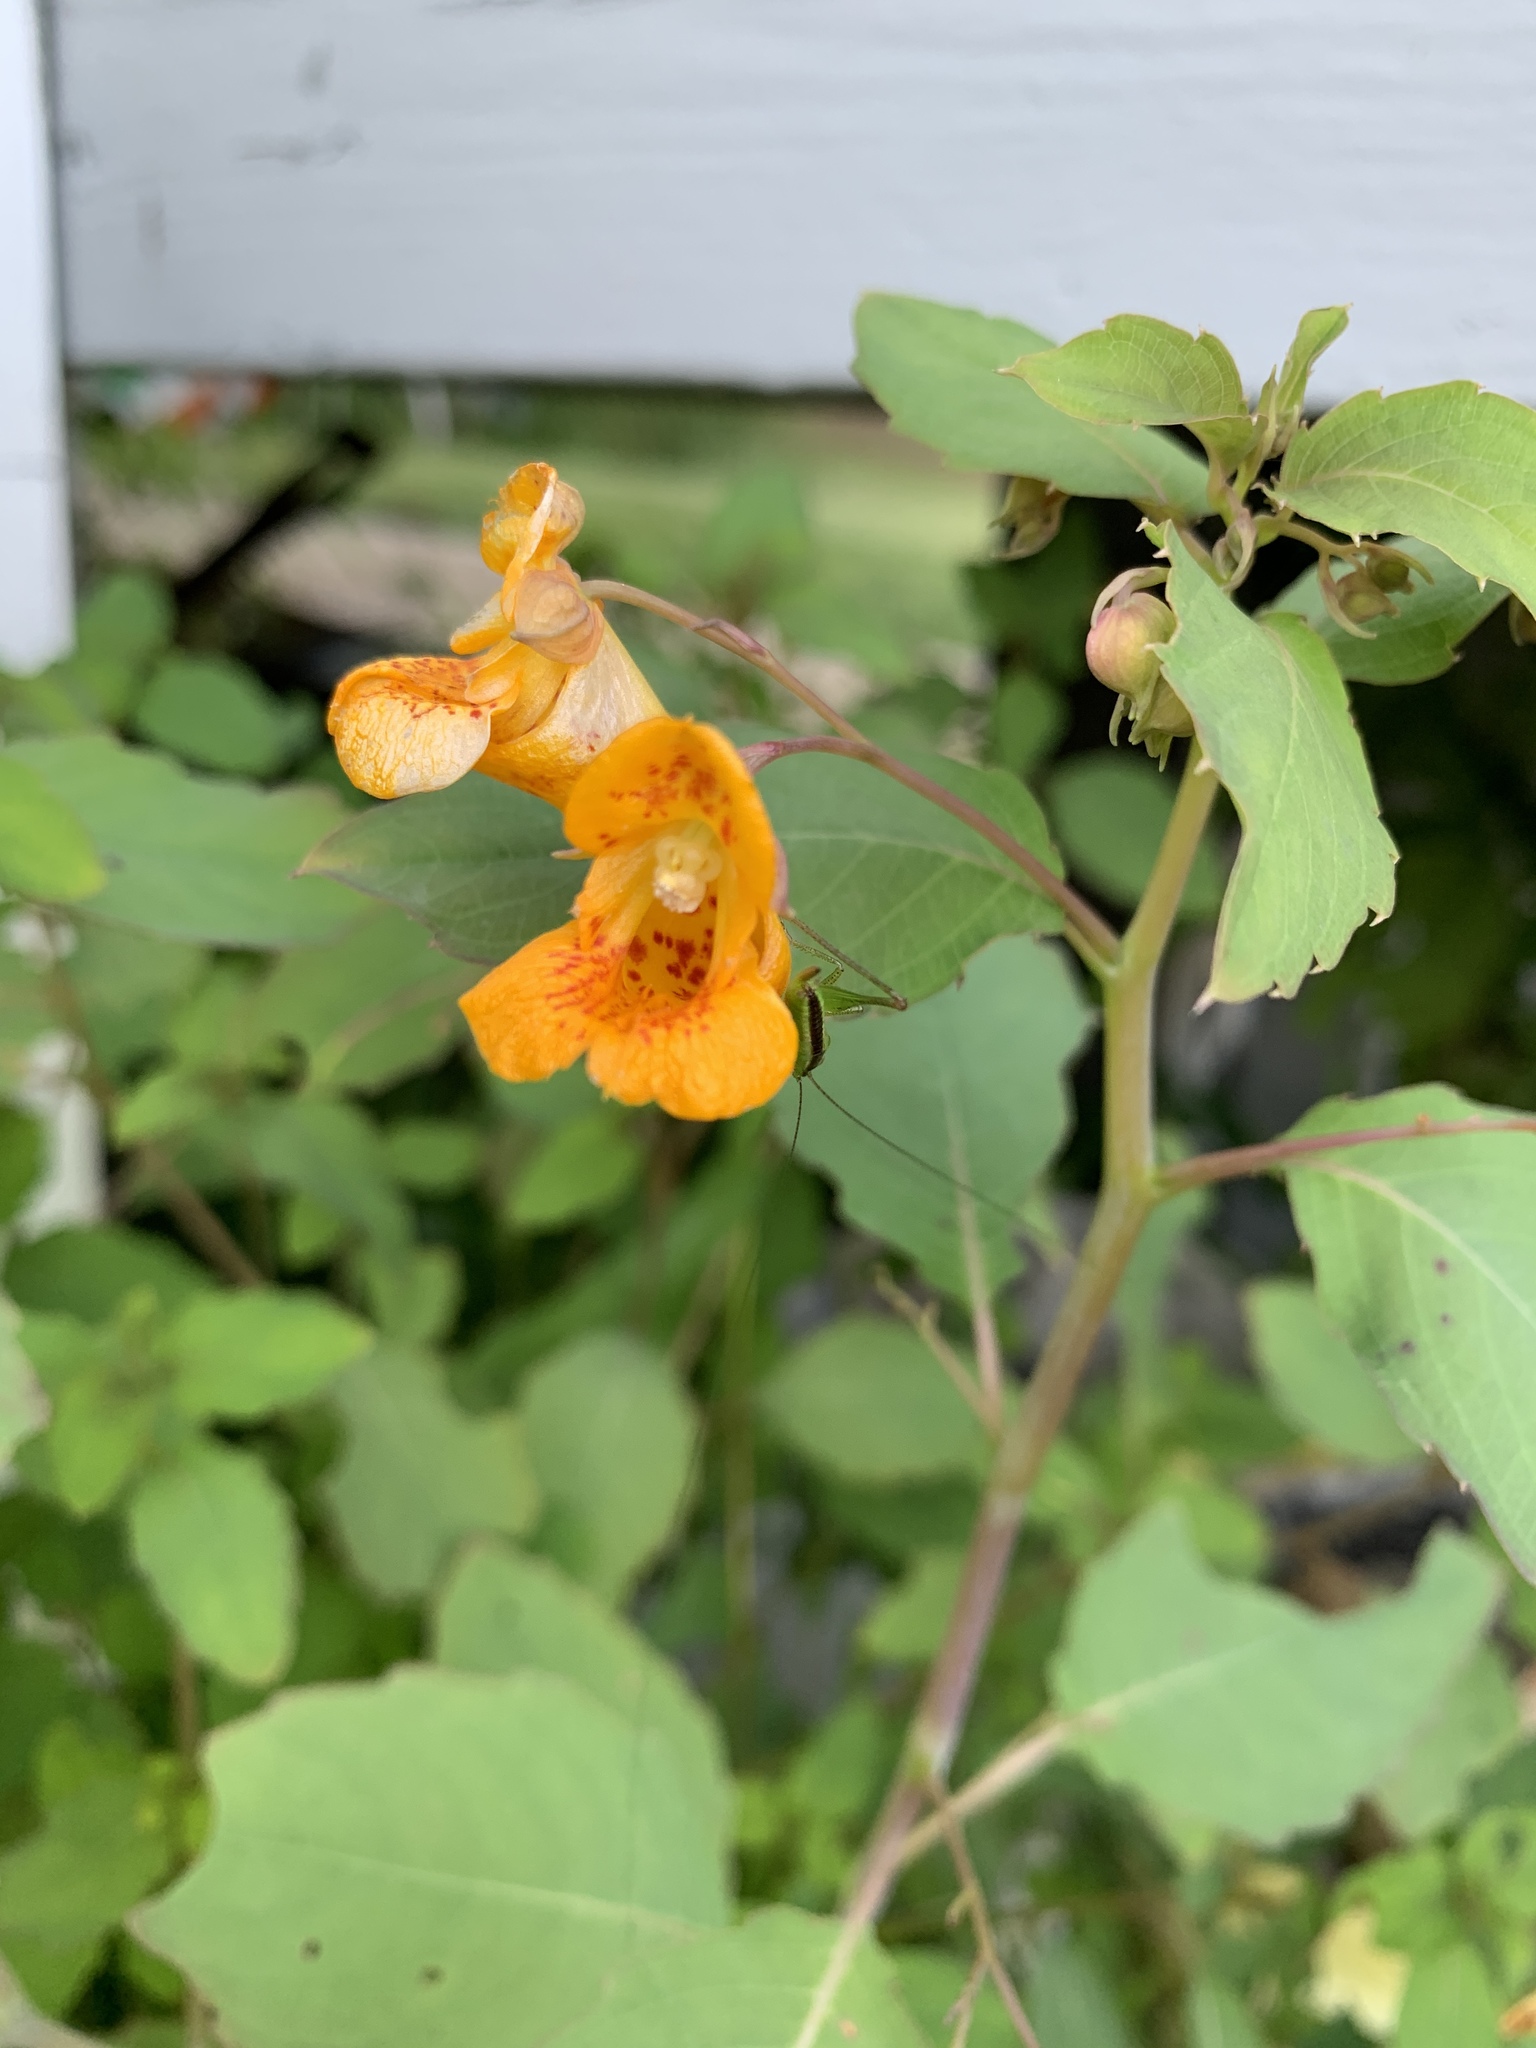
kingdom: Plantae
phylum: Tracheophyta
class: Magnoliopsida
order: Ericales
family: Balsaminaceae
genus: Impatiens
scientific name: Impatiens capensis
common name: Orange balsam
